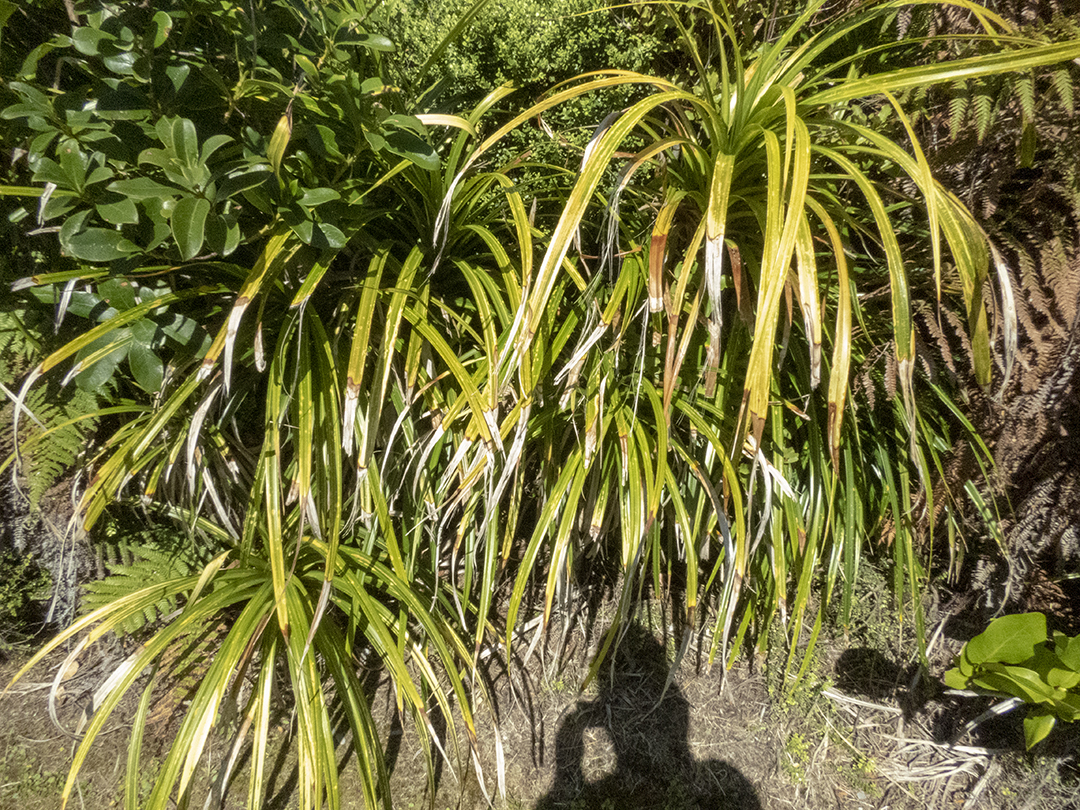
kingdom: Plantae
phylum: Tracheophyta
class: Liliopsida
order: Pandanales
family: Pandanaceae
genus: Freycinetia
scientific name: Freycinetia banksii
